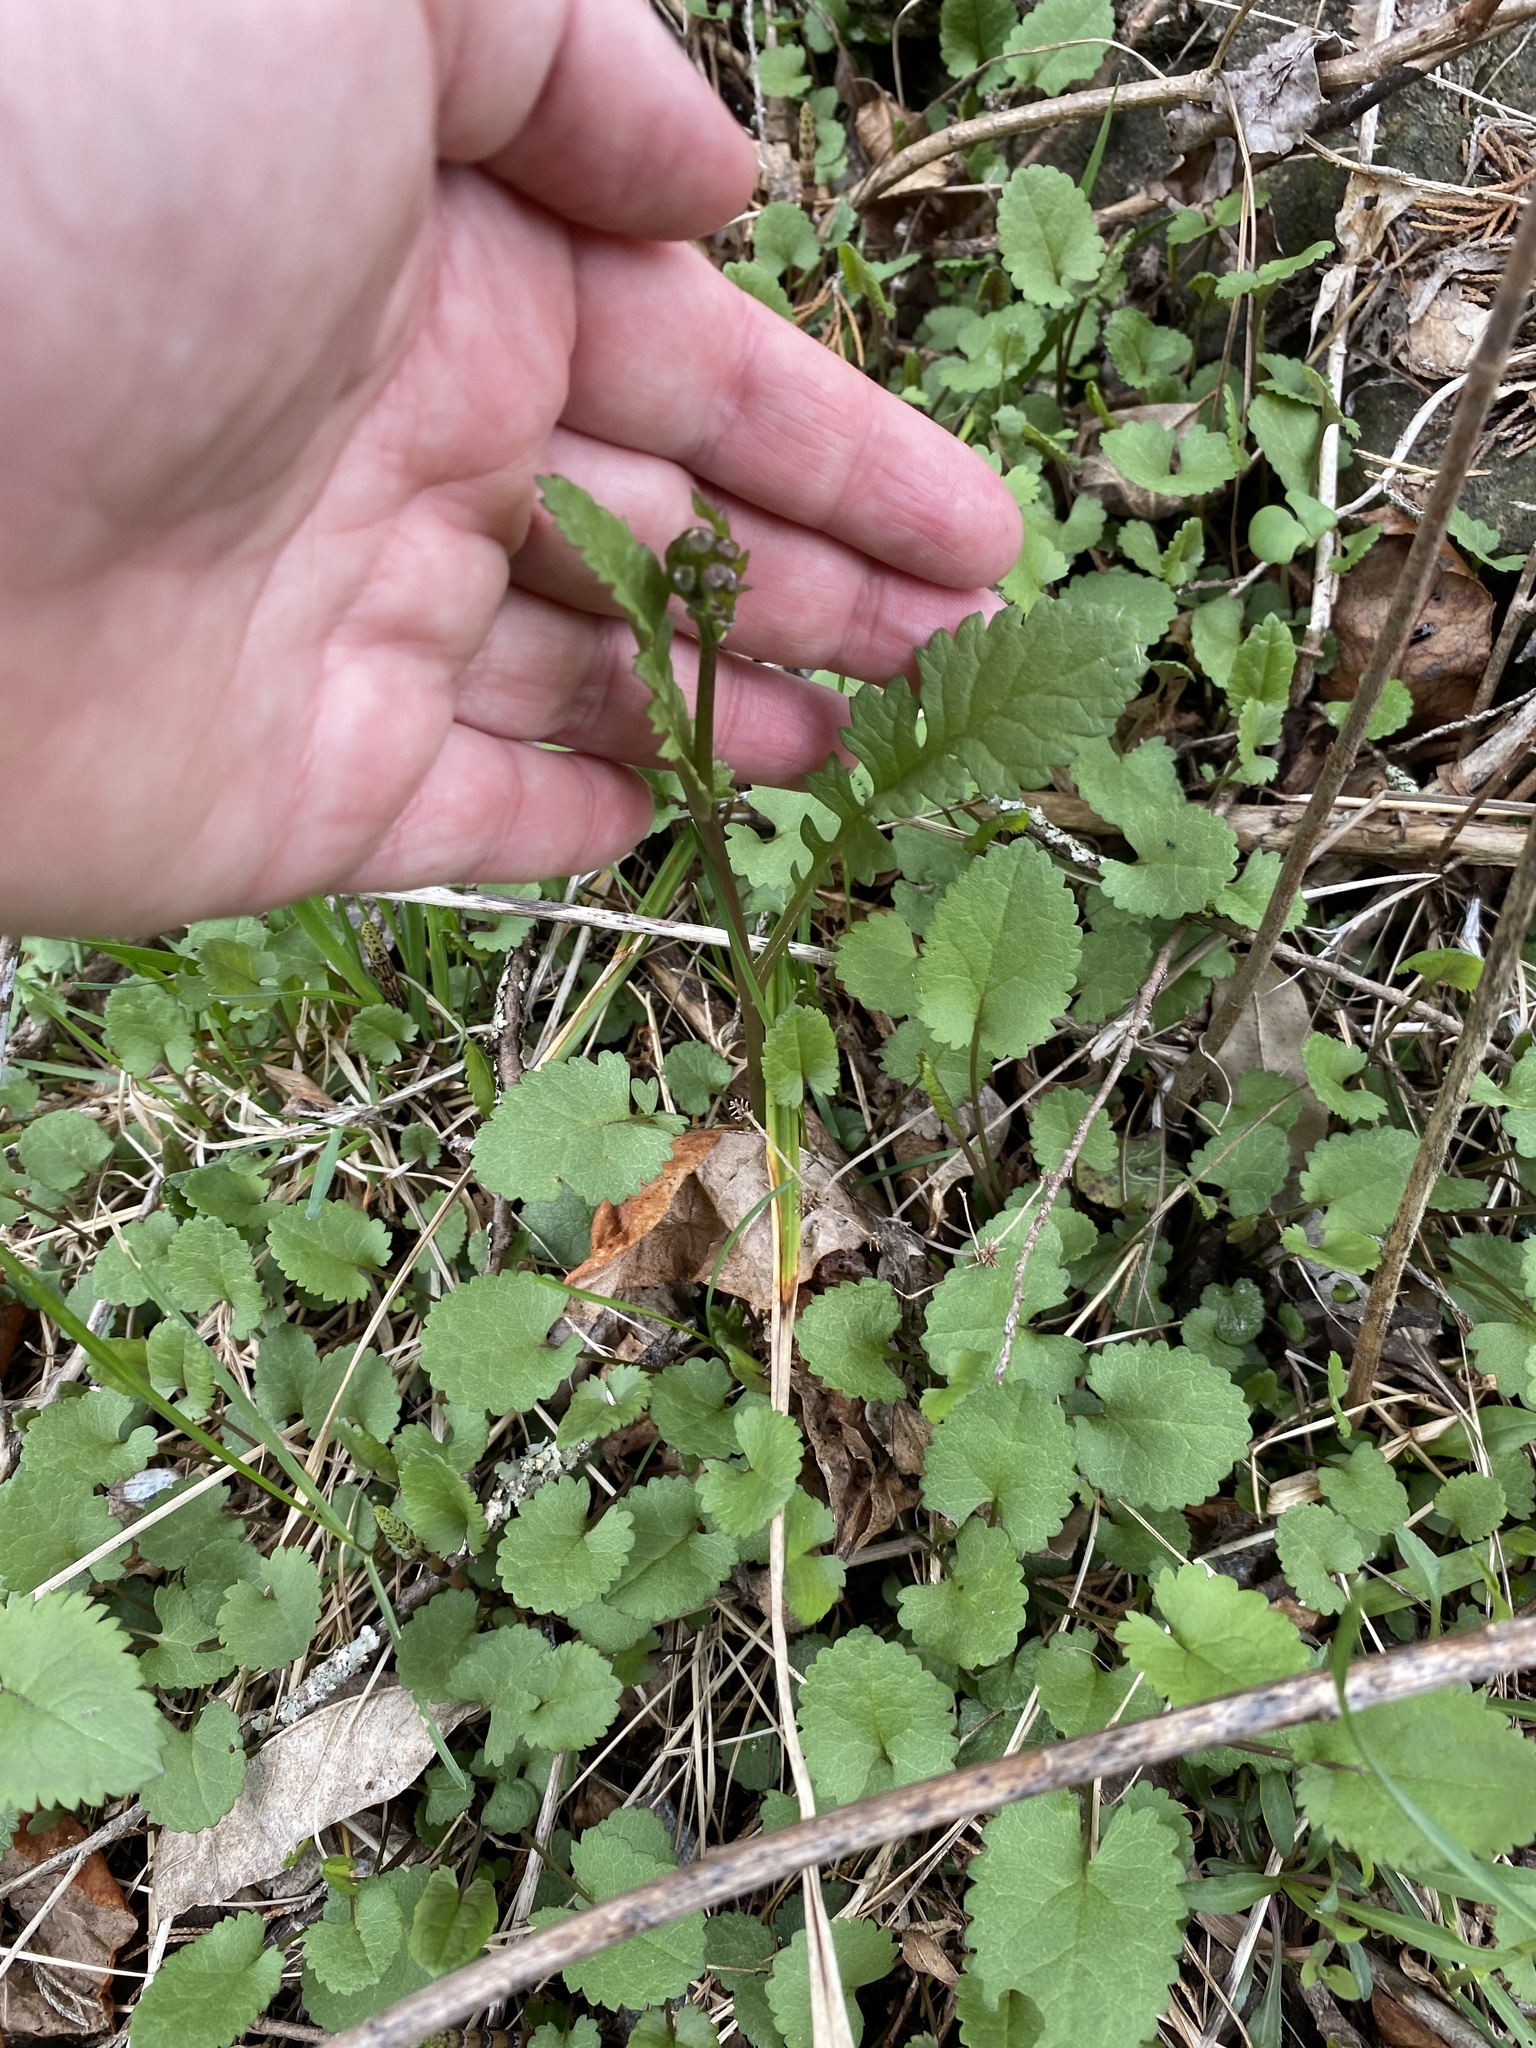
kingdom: Plantae
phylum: Tracheophyta
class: Magnoliopsida
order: Asterales
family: Asteraceae
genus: Packera
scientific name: Packera aurea
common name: Golden groundsel
